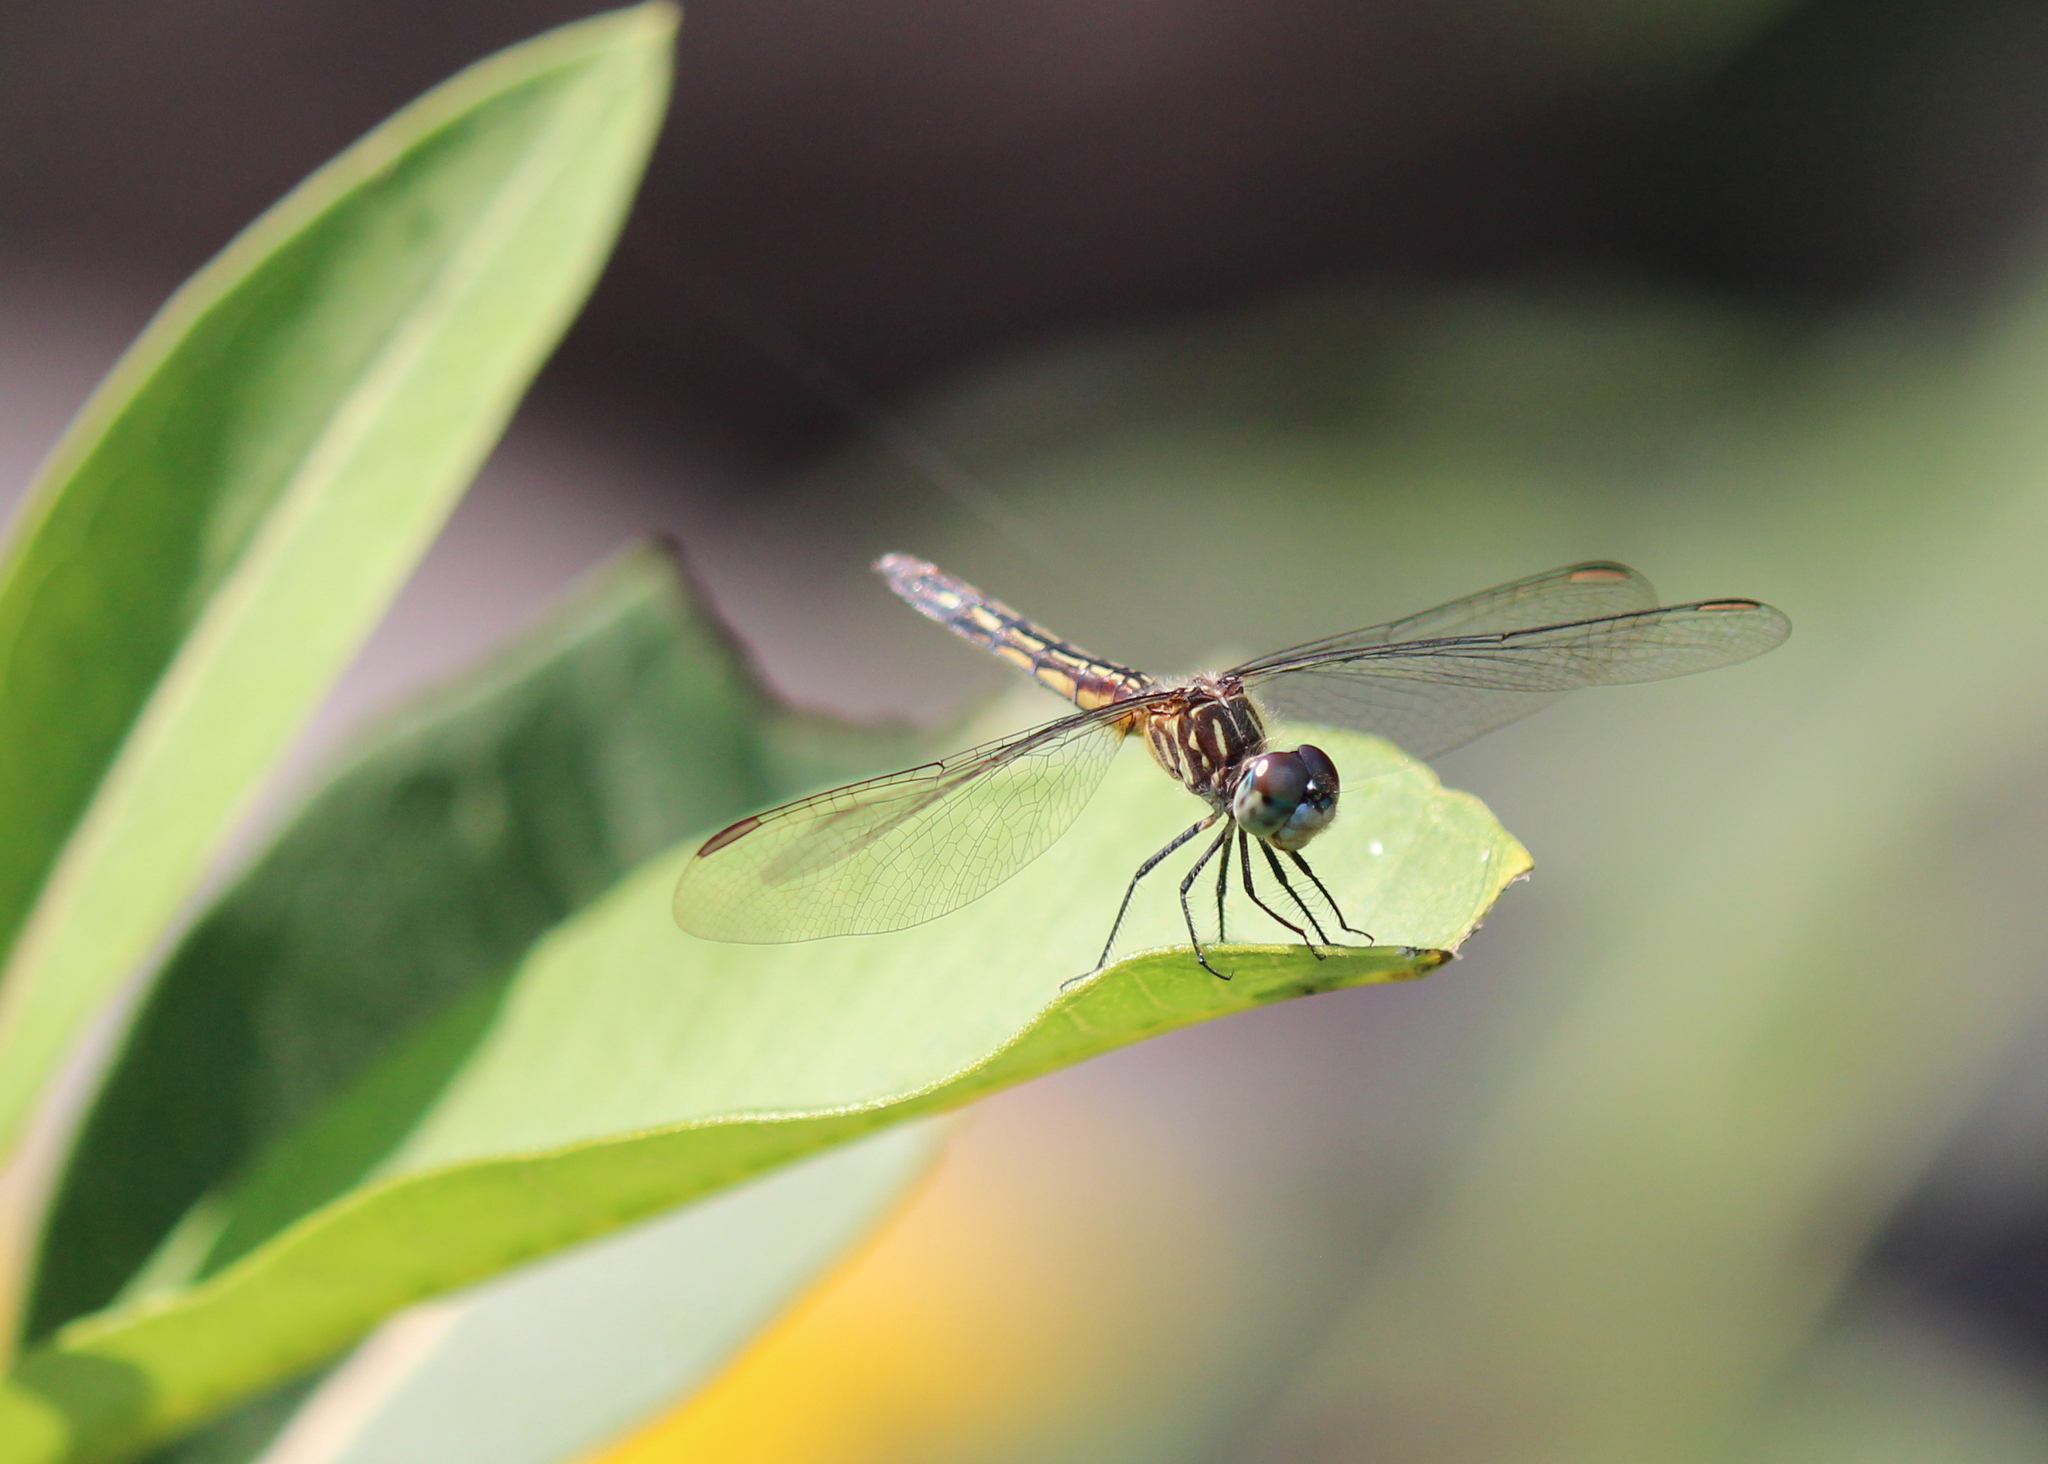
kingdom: Animalia
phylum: Arthropoda
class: Insecta
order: Odonata
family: Libellulidae
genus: Pachydiplax
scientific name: Pachydiplax longipennis
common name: Blue dasher
